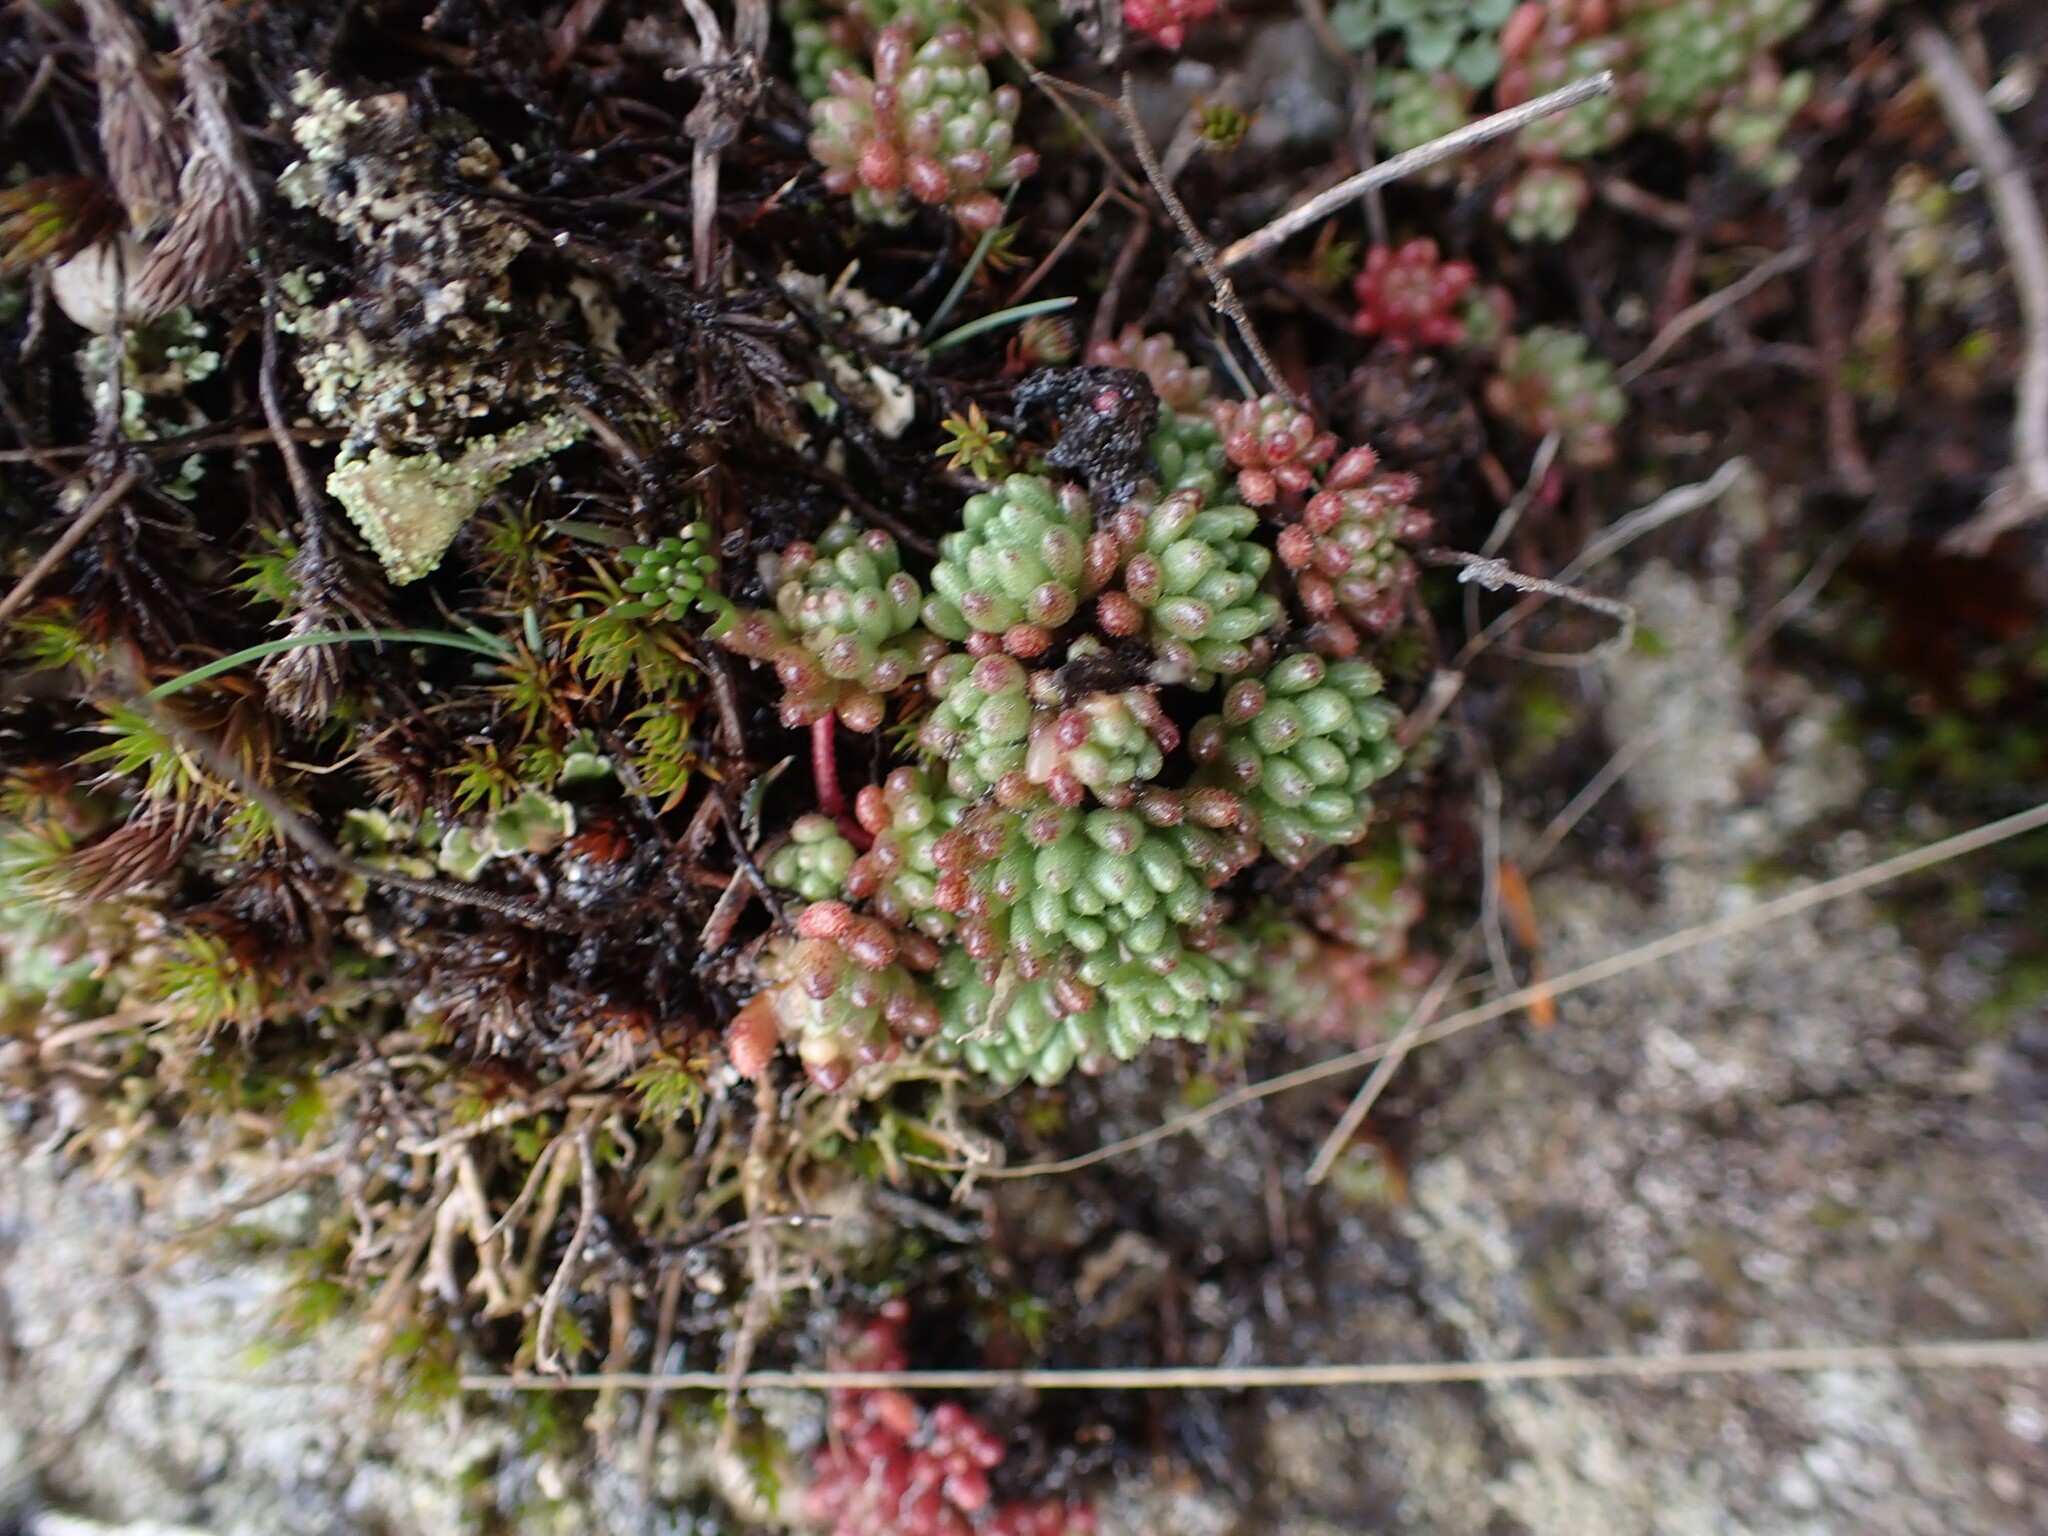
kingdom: Plantae
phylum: Tracheophyta
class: Magnoliopsida
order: Saxifragales
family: Crassulaceae
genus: Sedum
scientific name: Sedum hirsutum
